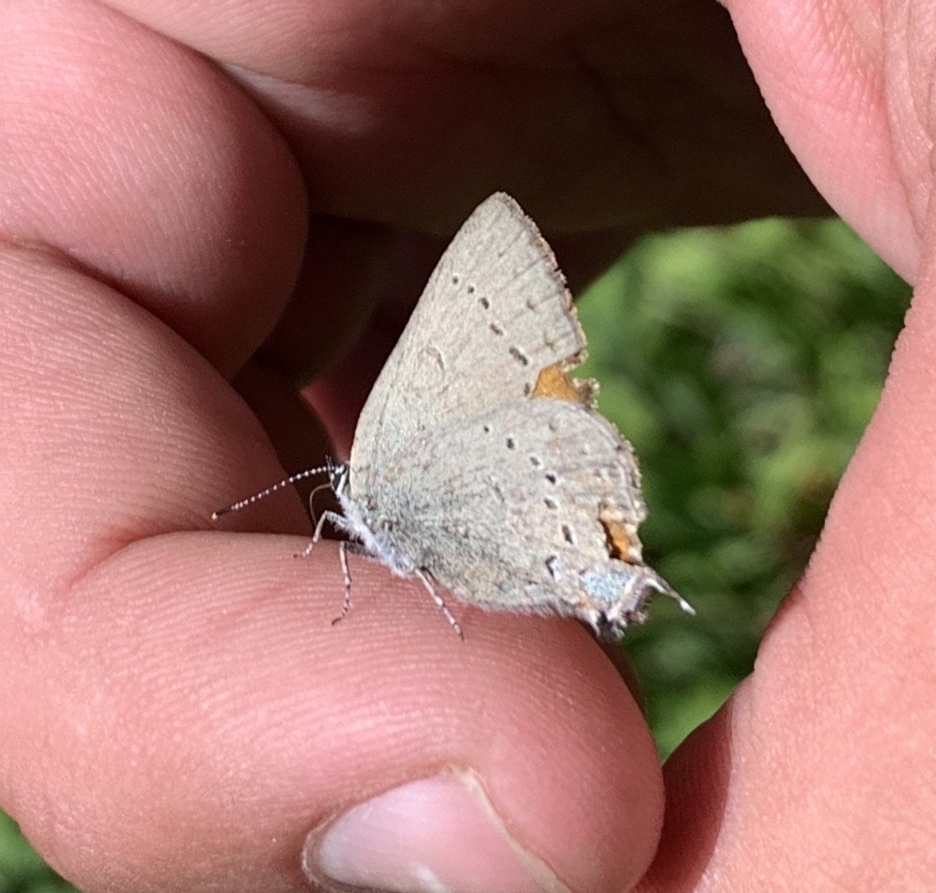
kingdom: Animalia
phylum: Arthropoda
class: Insecta
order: Lepidoptera
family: Lycaenidae
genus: Strymon
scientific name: Strymon sylvinus
